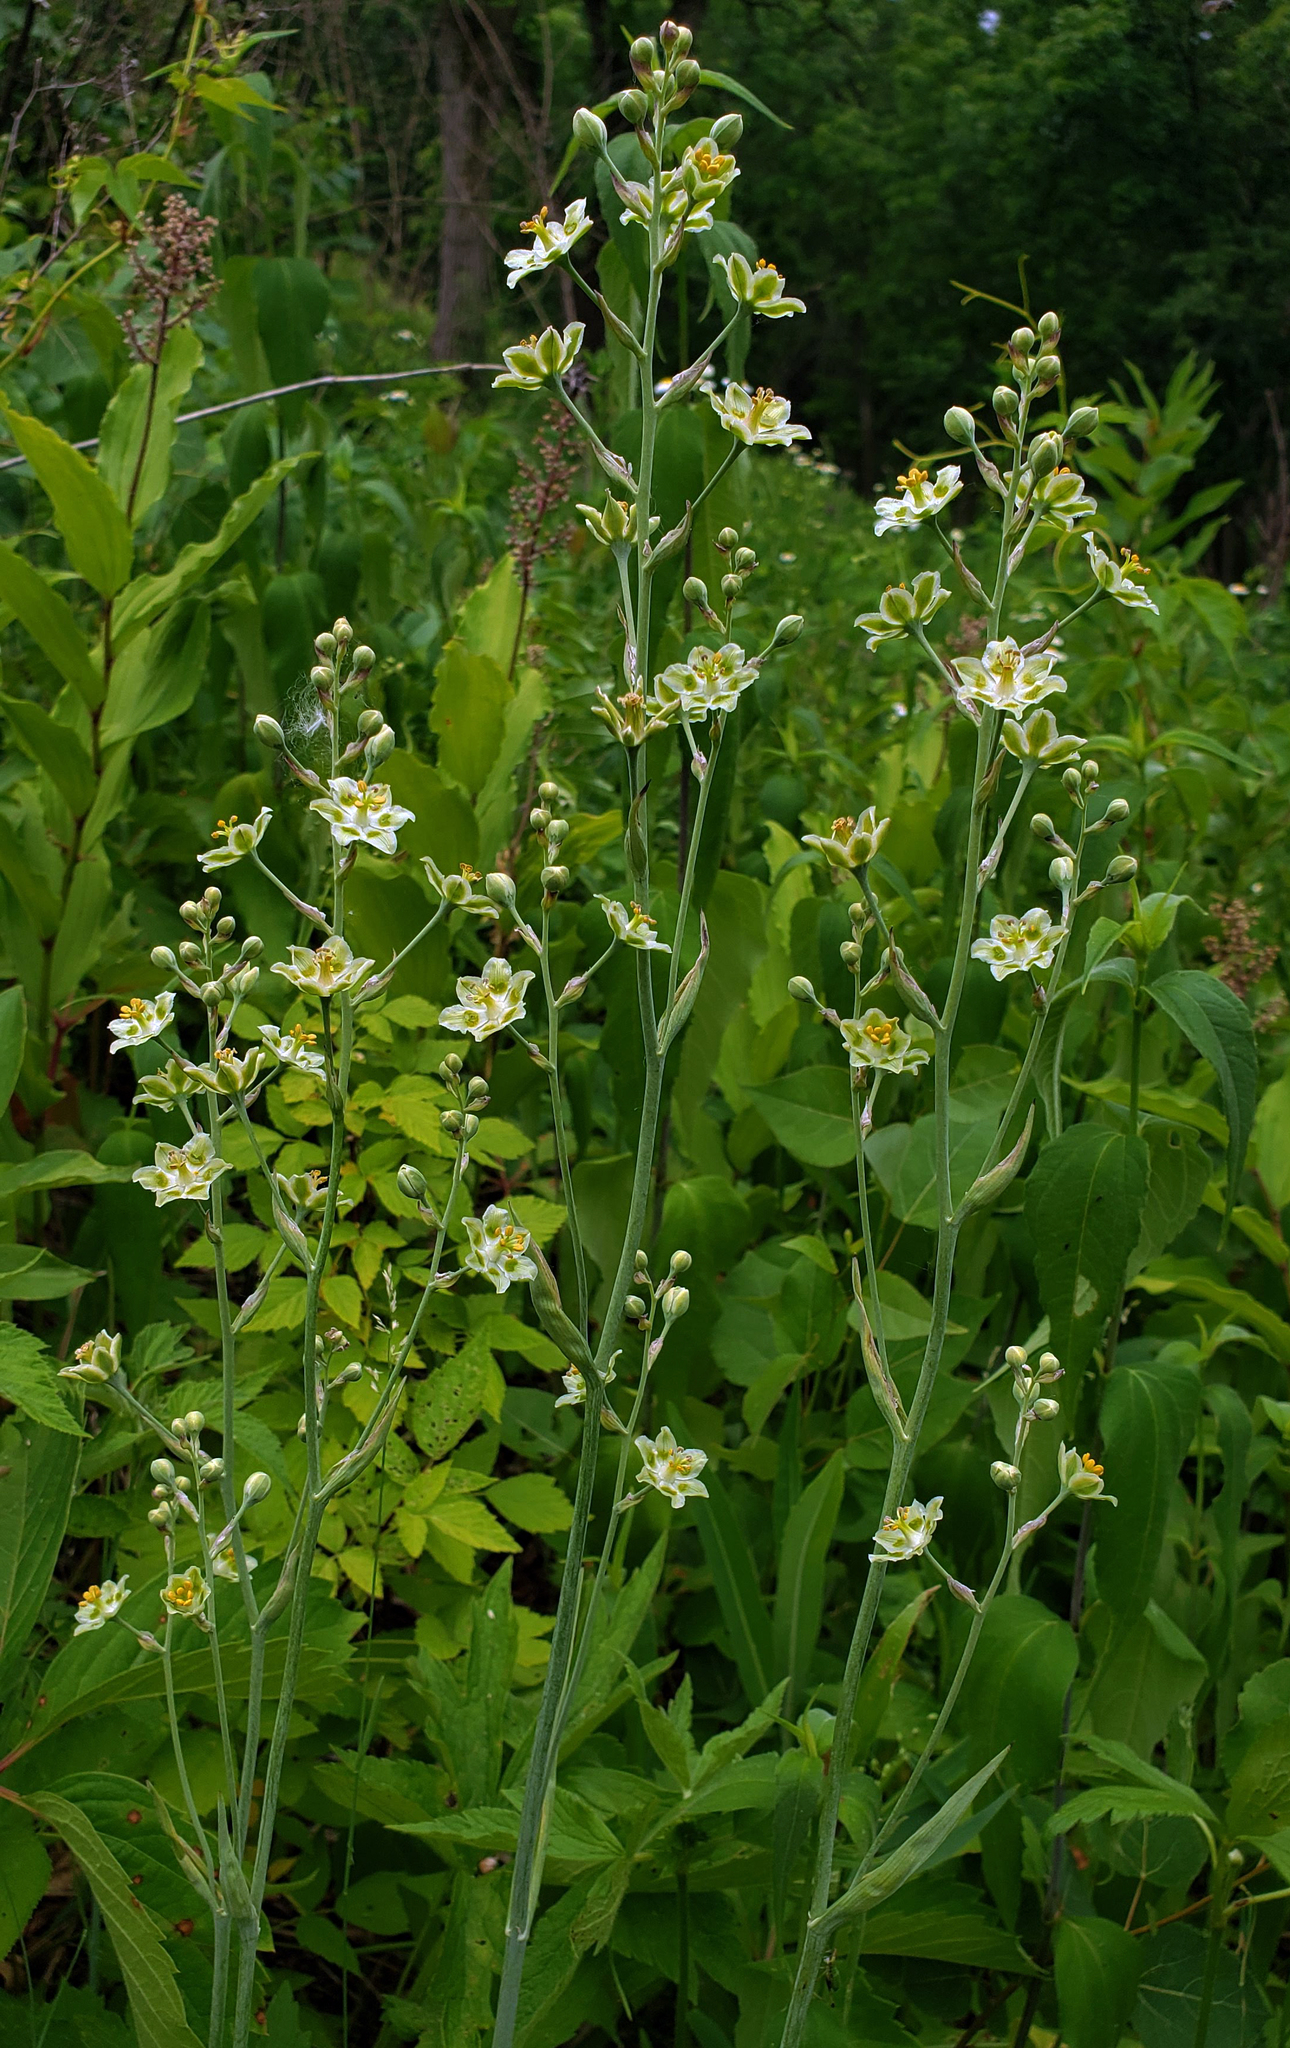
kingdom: Plantae
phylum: Tracheophyta
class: Liliopsida
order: Liliales
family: Melanthiaceae
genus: Anticlea
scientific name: Anticlea elegans
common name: Mountain death camas
